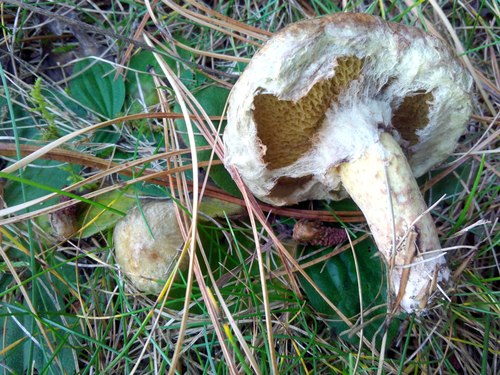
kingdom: Fungi
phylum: Basidiomycota
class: Agaricomycetes
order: Boletales
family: Suillaceae
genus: Suillus
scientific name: Suillus americanus
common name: Chicken fat mushroom
